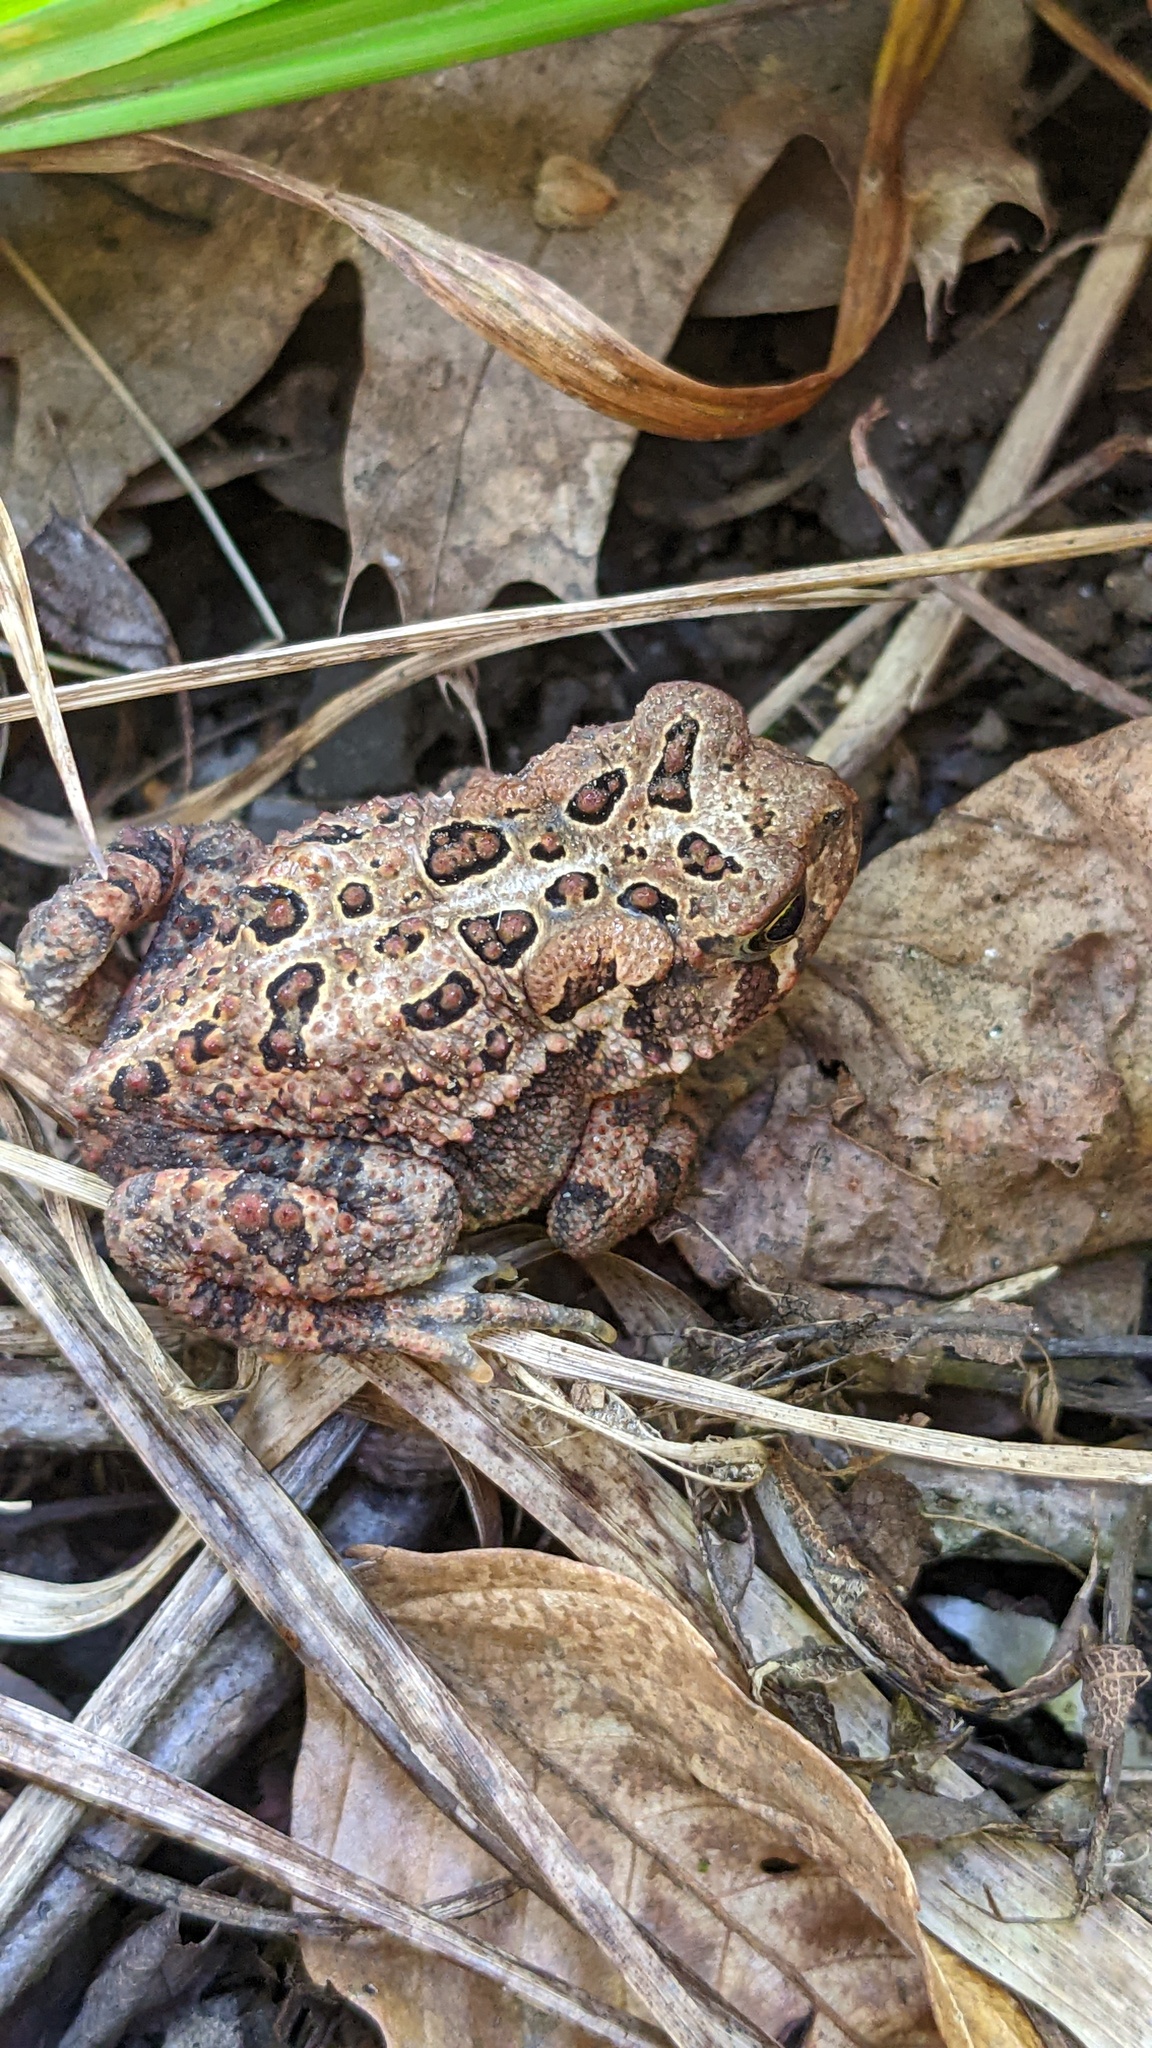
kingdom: Animalia
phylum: Chordata
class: Amphibia
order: Anura
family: Bufonidae
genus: Anaxyrus
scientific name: Anaxyrus americanus
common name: American toad
